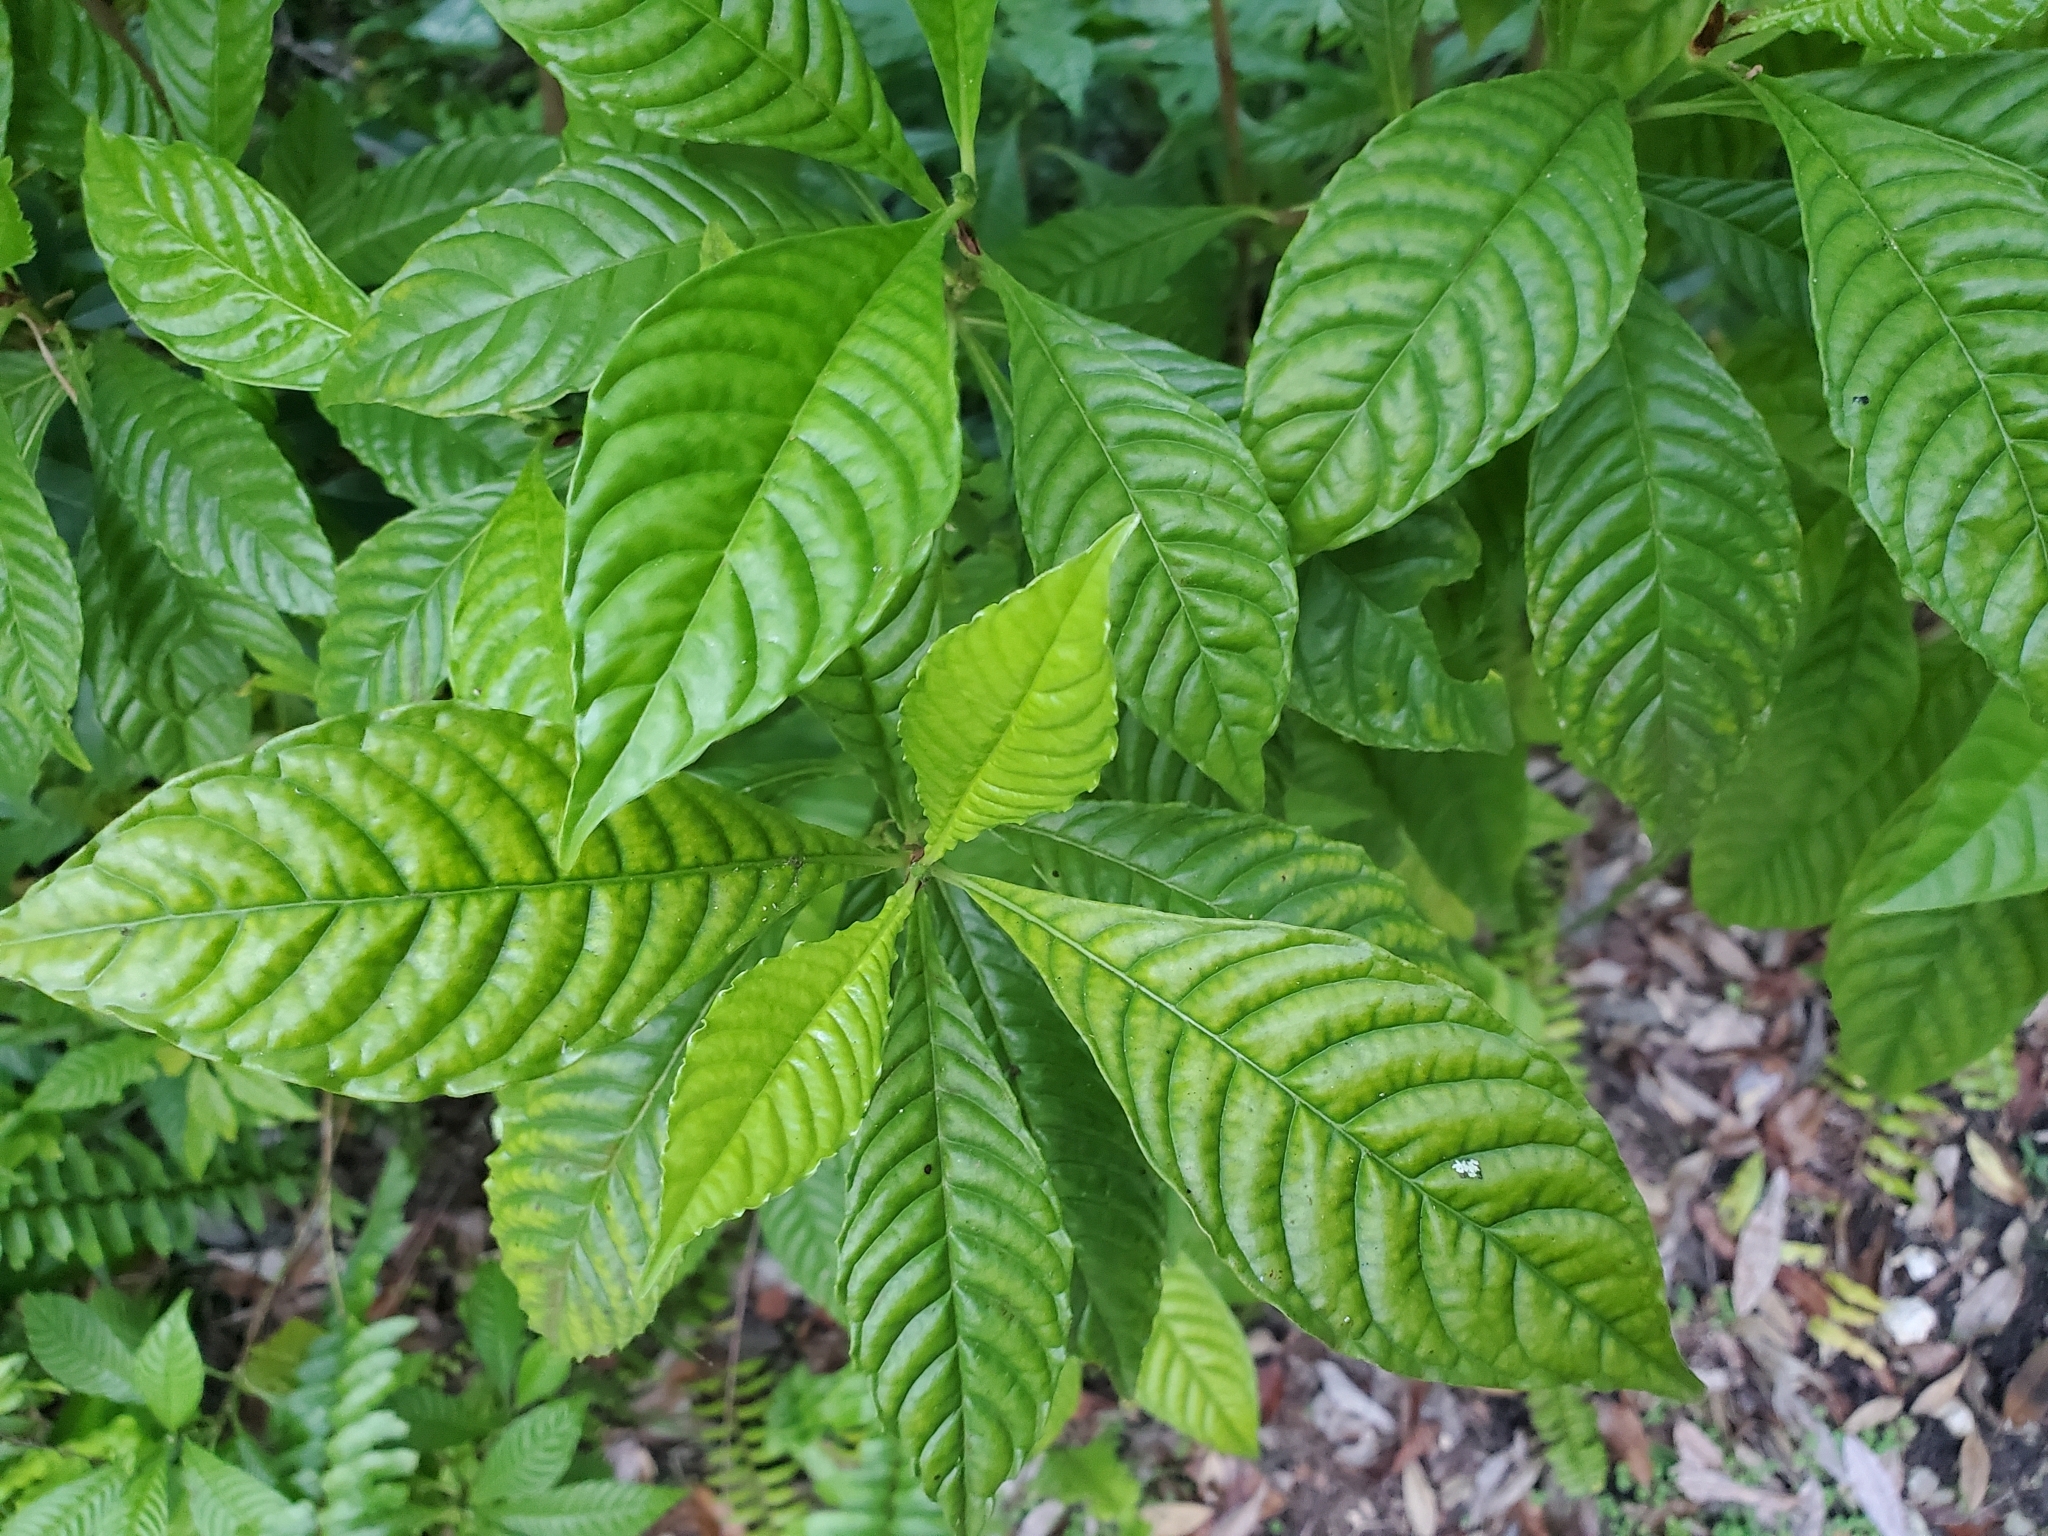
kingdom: Plantae
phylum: Tracheophyta
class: Magnoliopsida
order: Gentianales
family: Rubiaceae
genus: Psychotria
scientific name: Psychotria nervosa
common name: Bastard cankerberry
